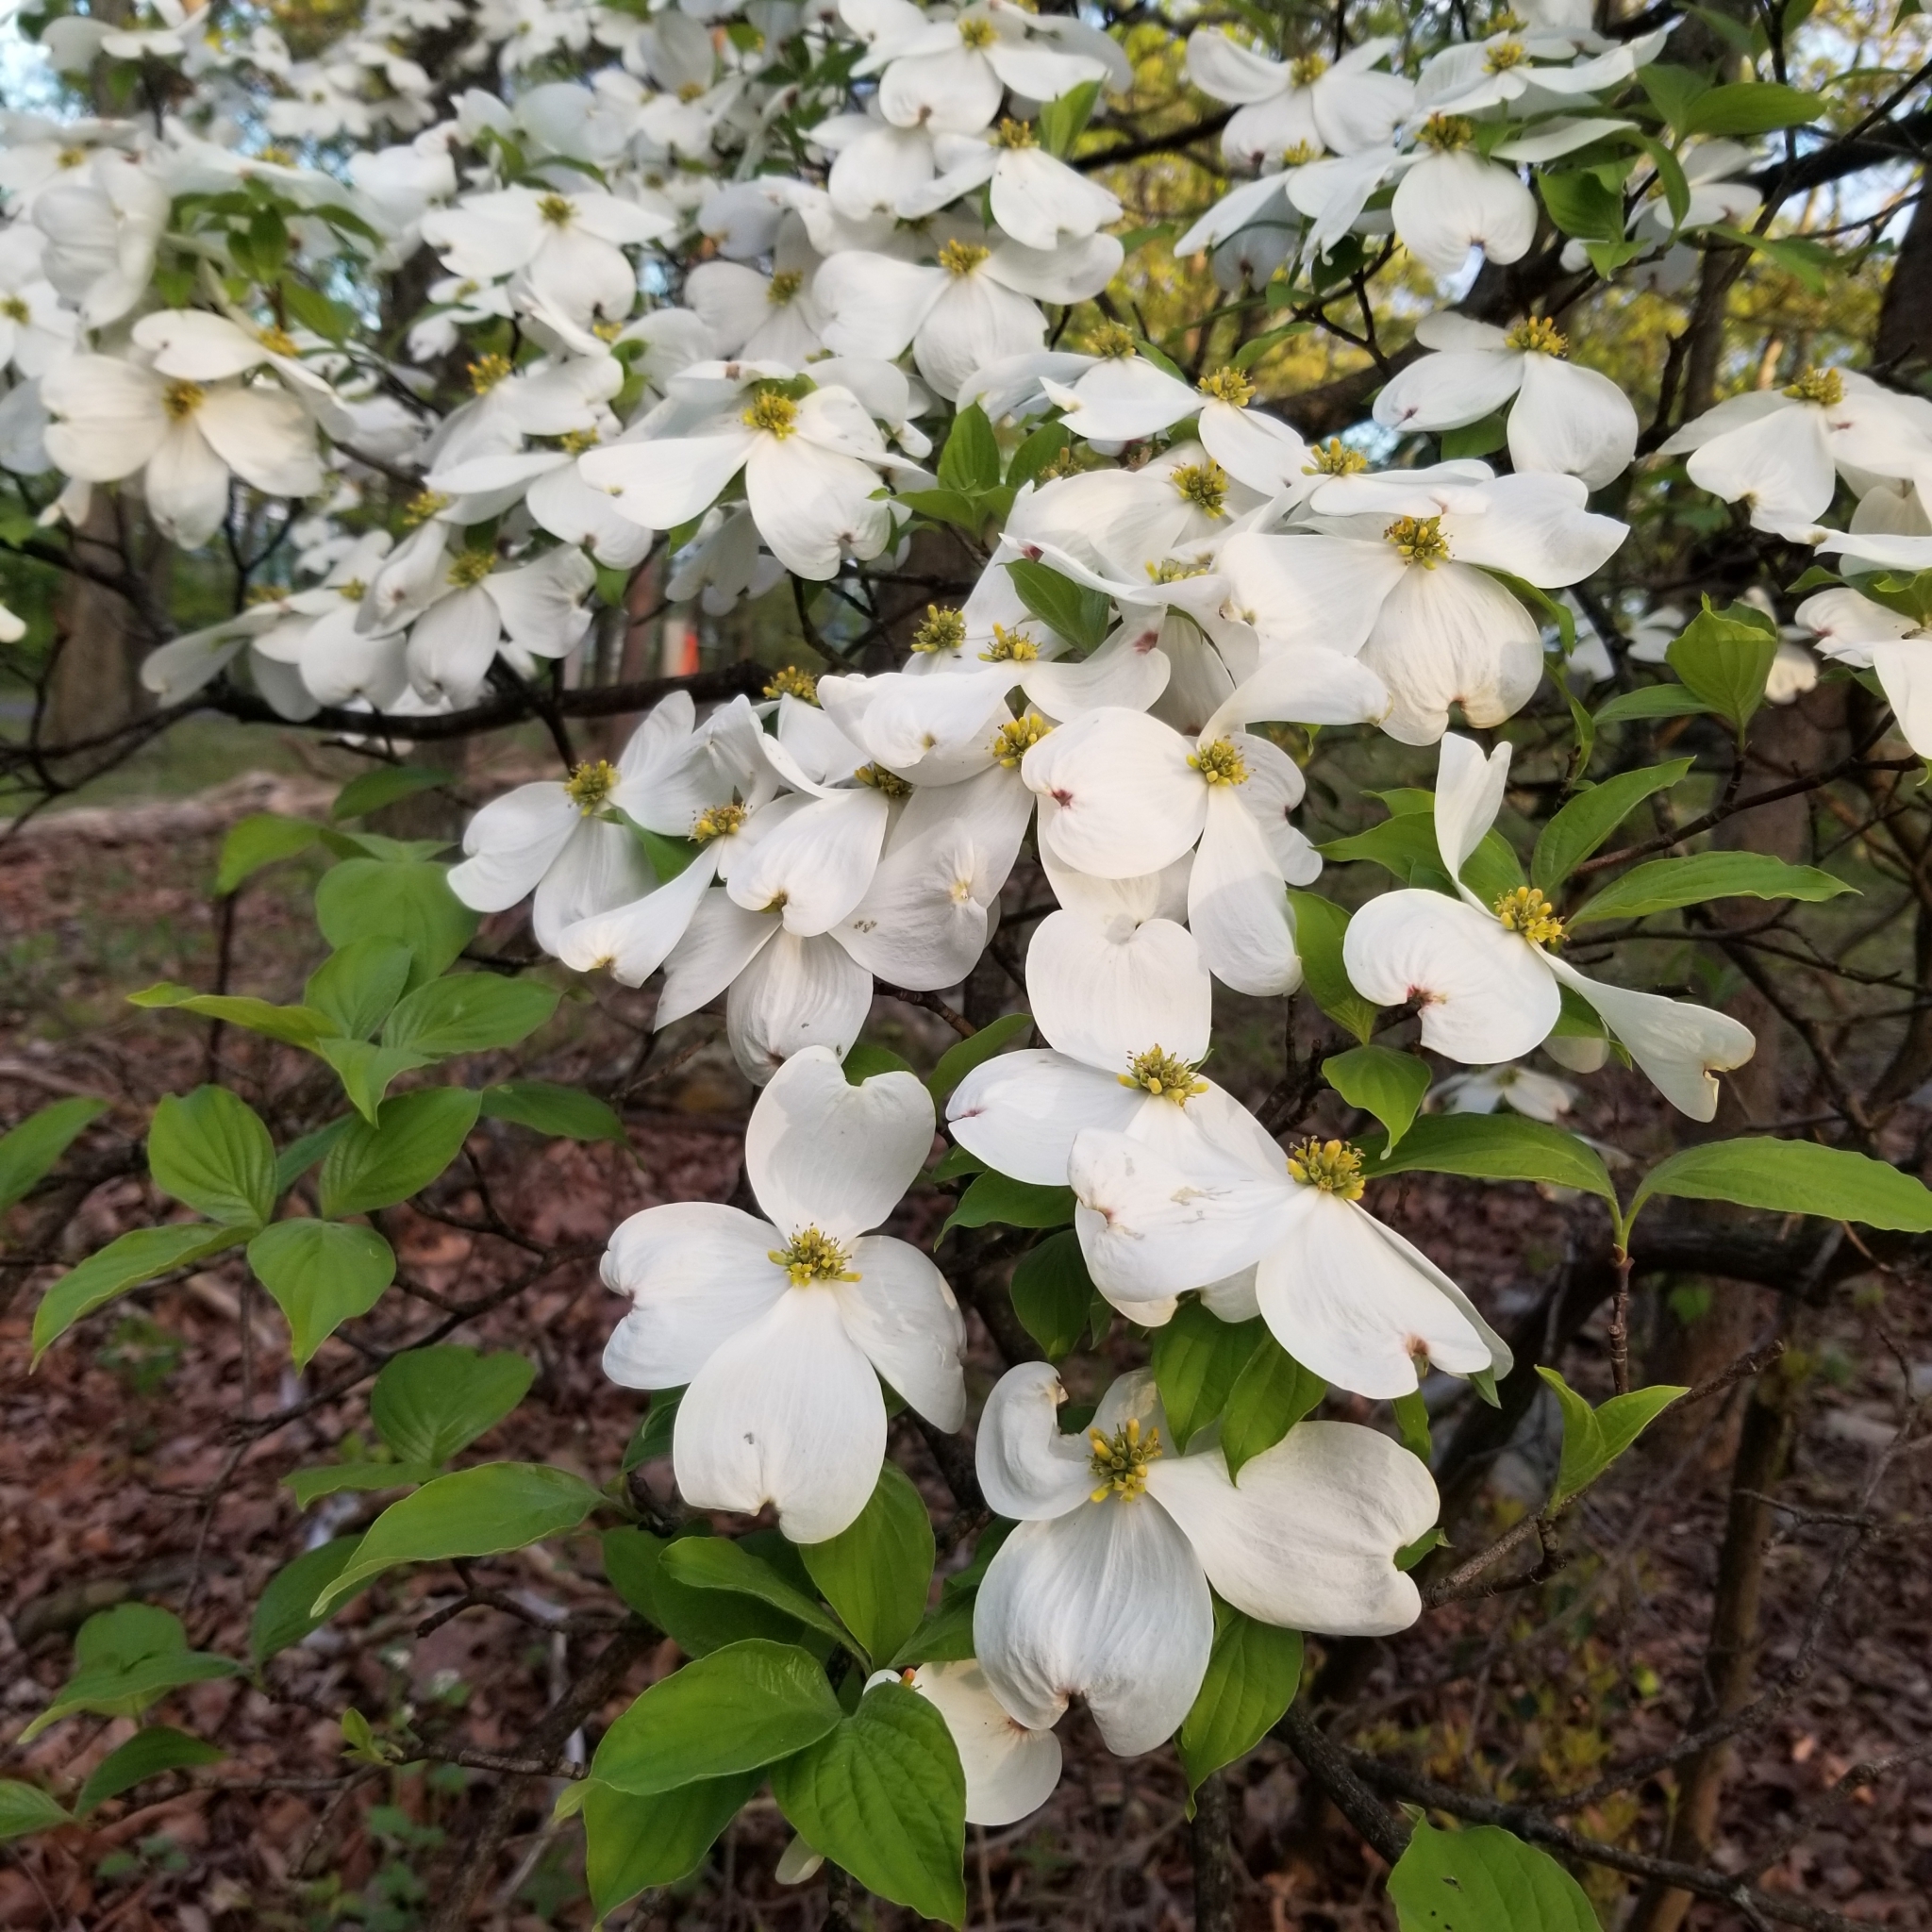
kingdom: Plantae
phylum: Tracheophyta
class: Magnoliopsida
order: Cornales
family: Cornaceae
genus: Cornus
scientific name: Cornus florida
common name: Flowering dogwood
